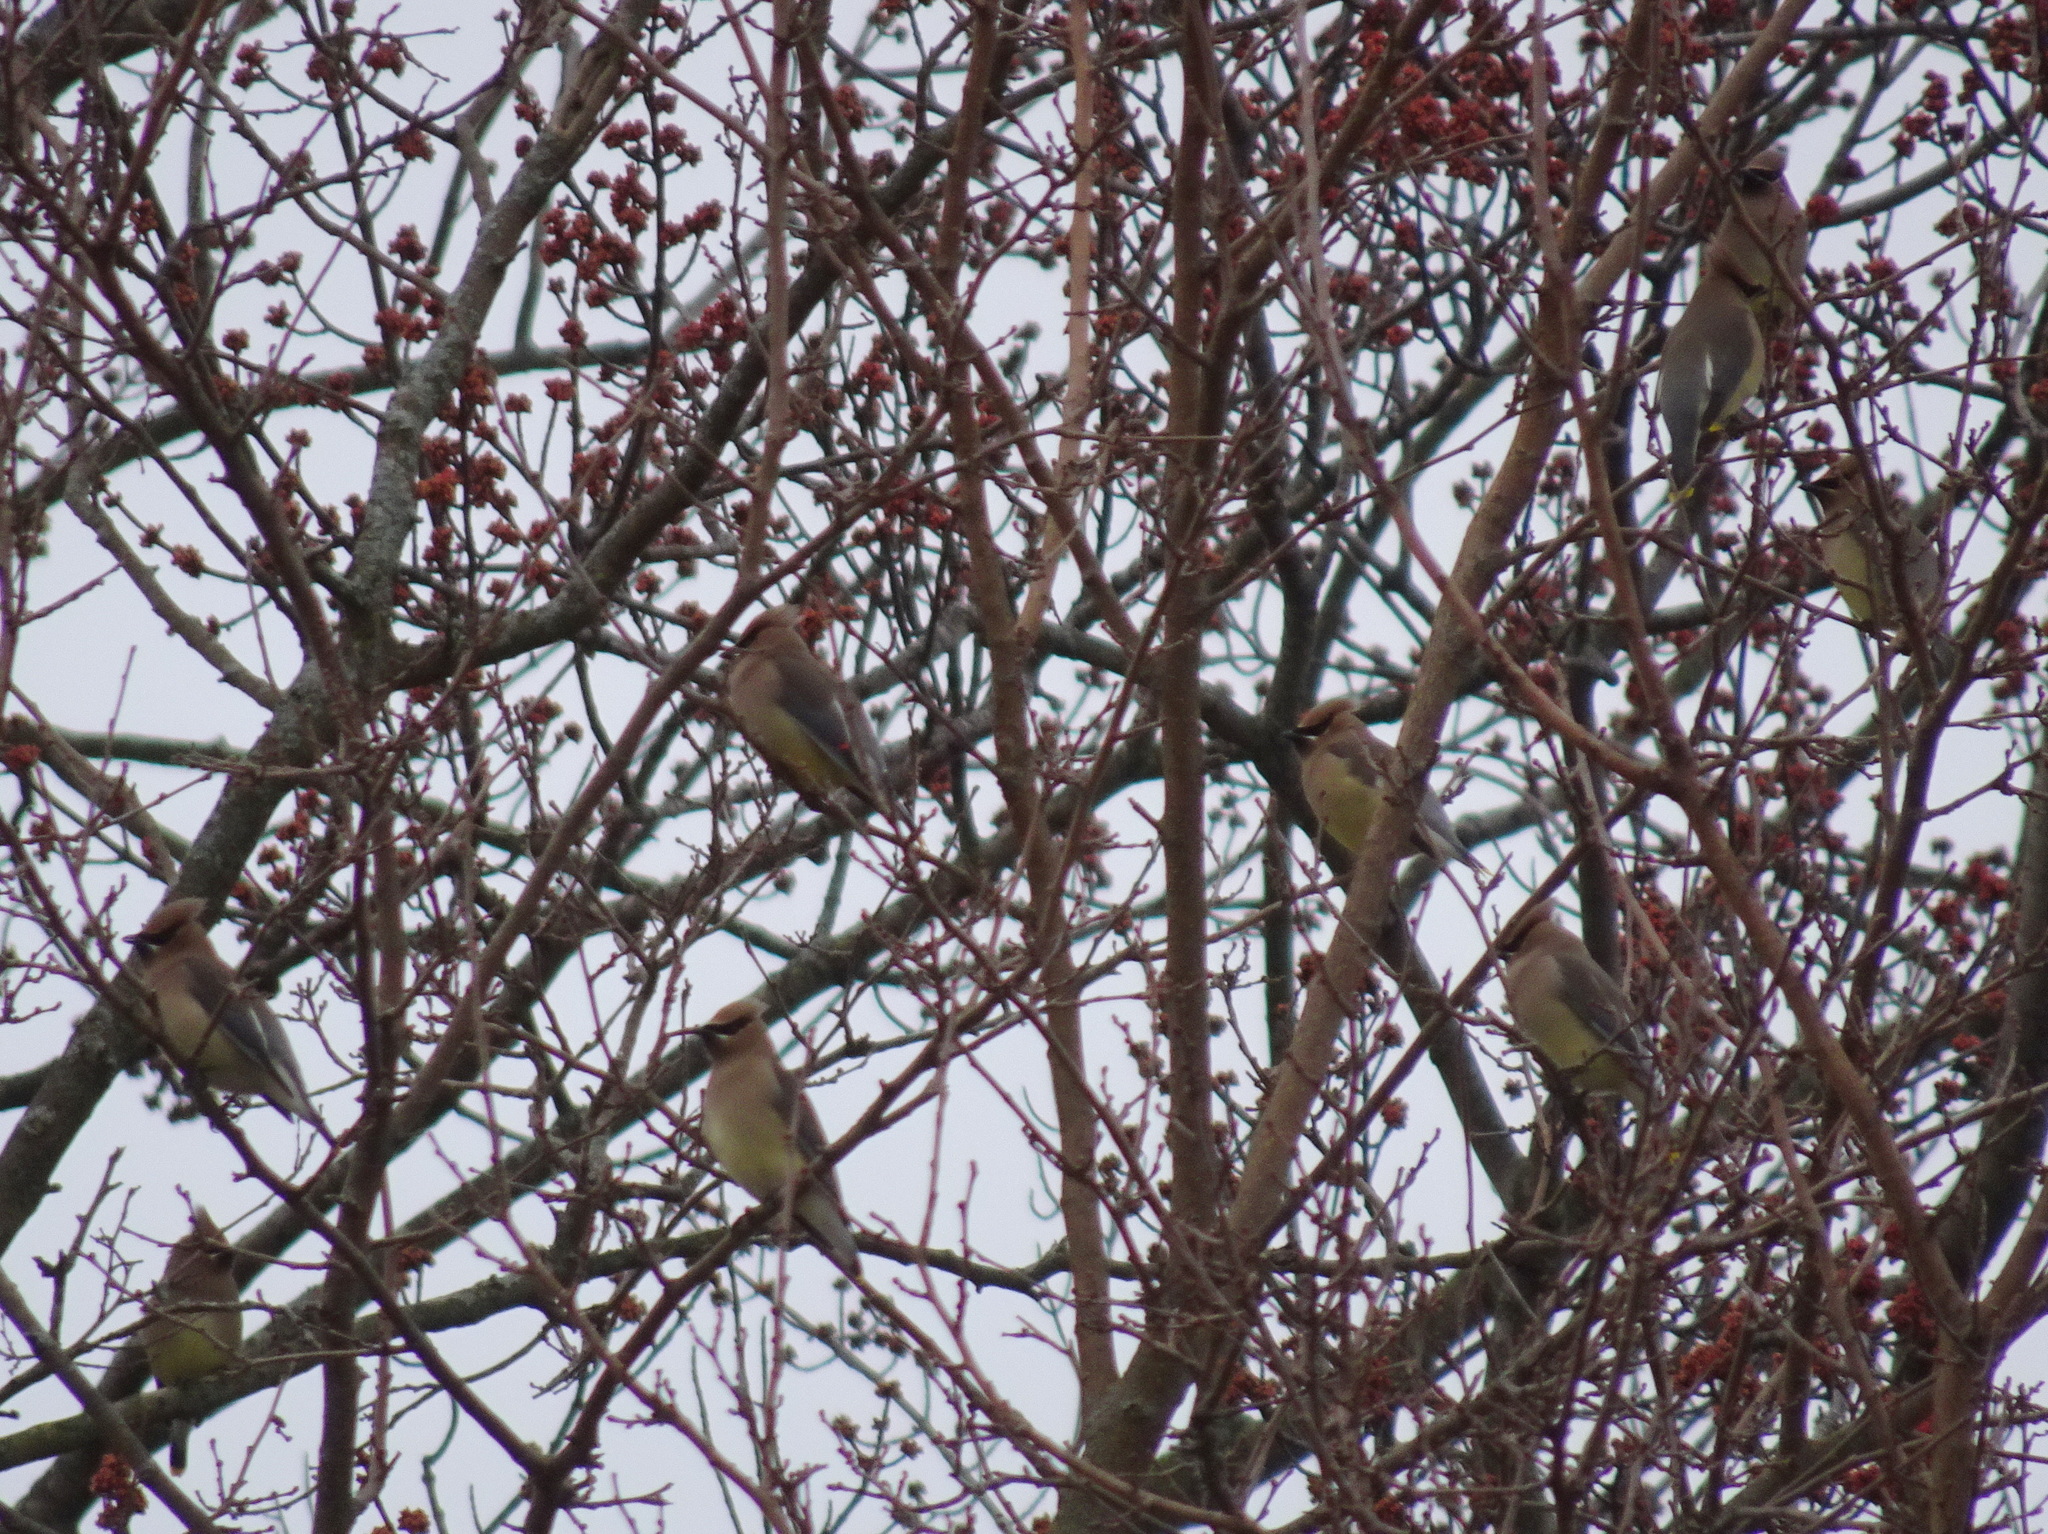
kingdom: Animalia
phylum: Chordata
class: Aves
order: Passeriformes
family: Bombycillidae
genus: Bombycilla
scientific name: Bombycilla cedrorum
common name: Cedar waxwing
